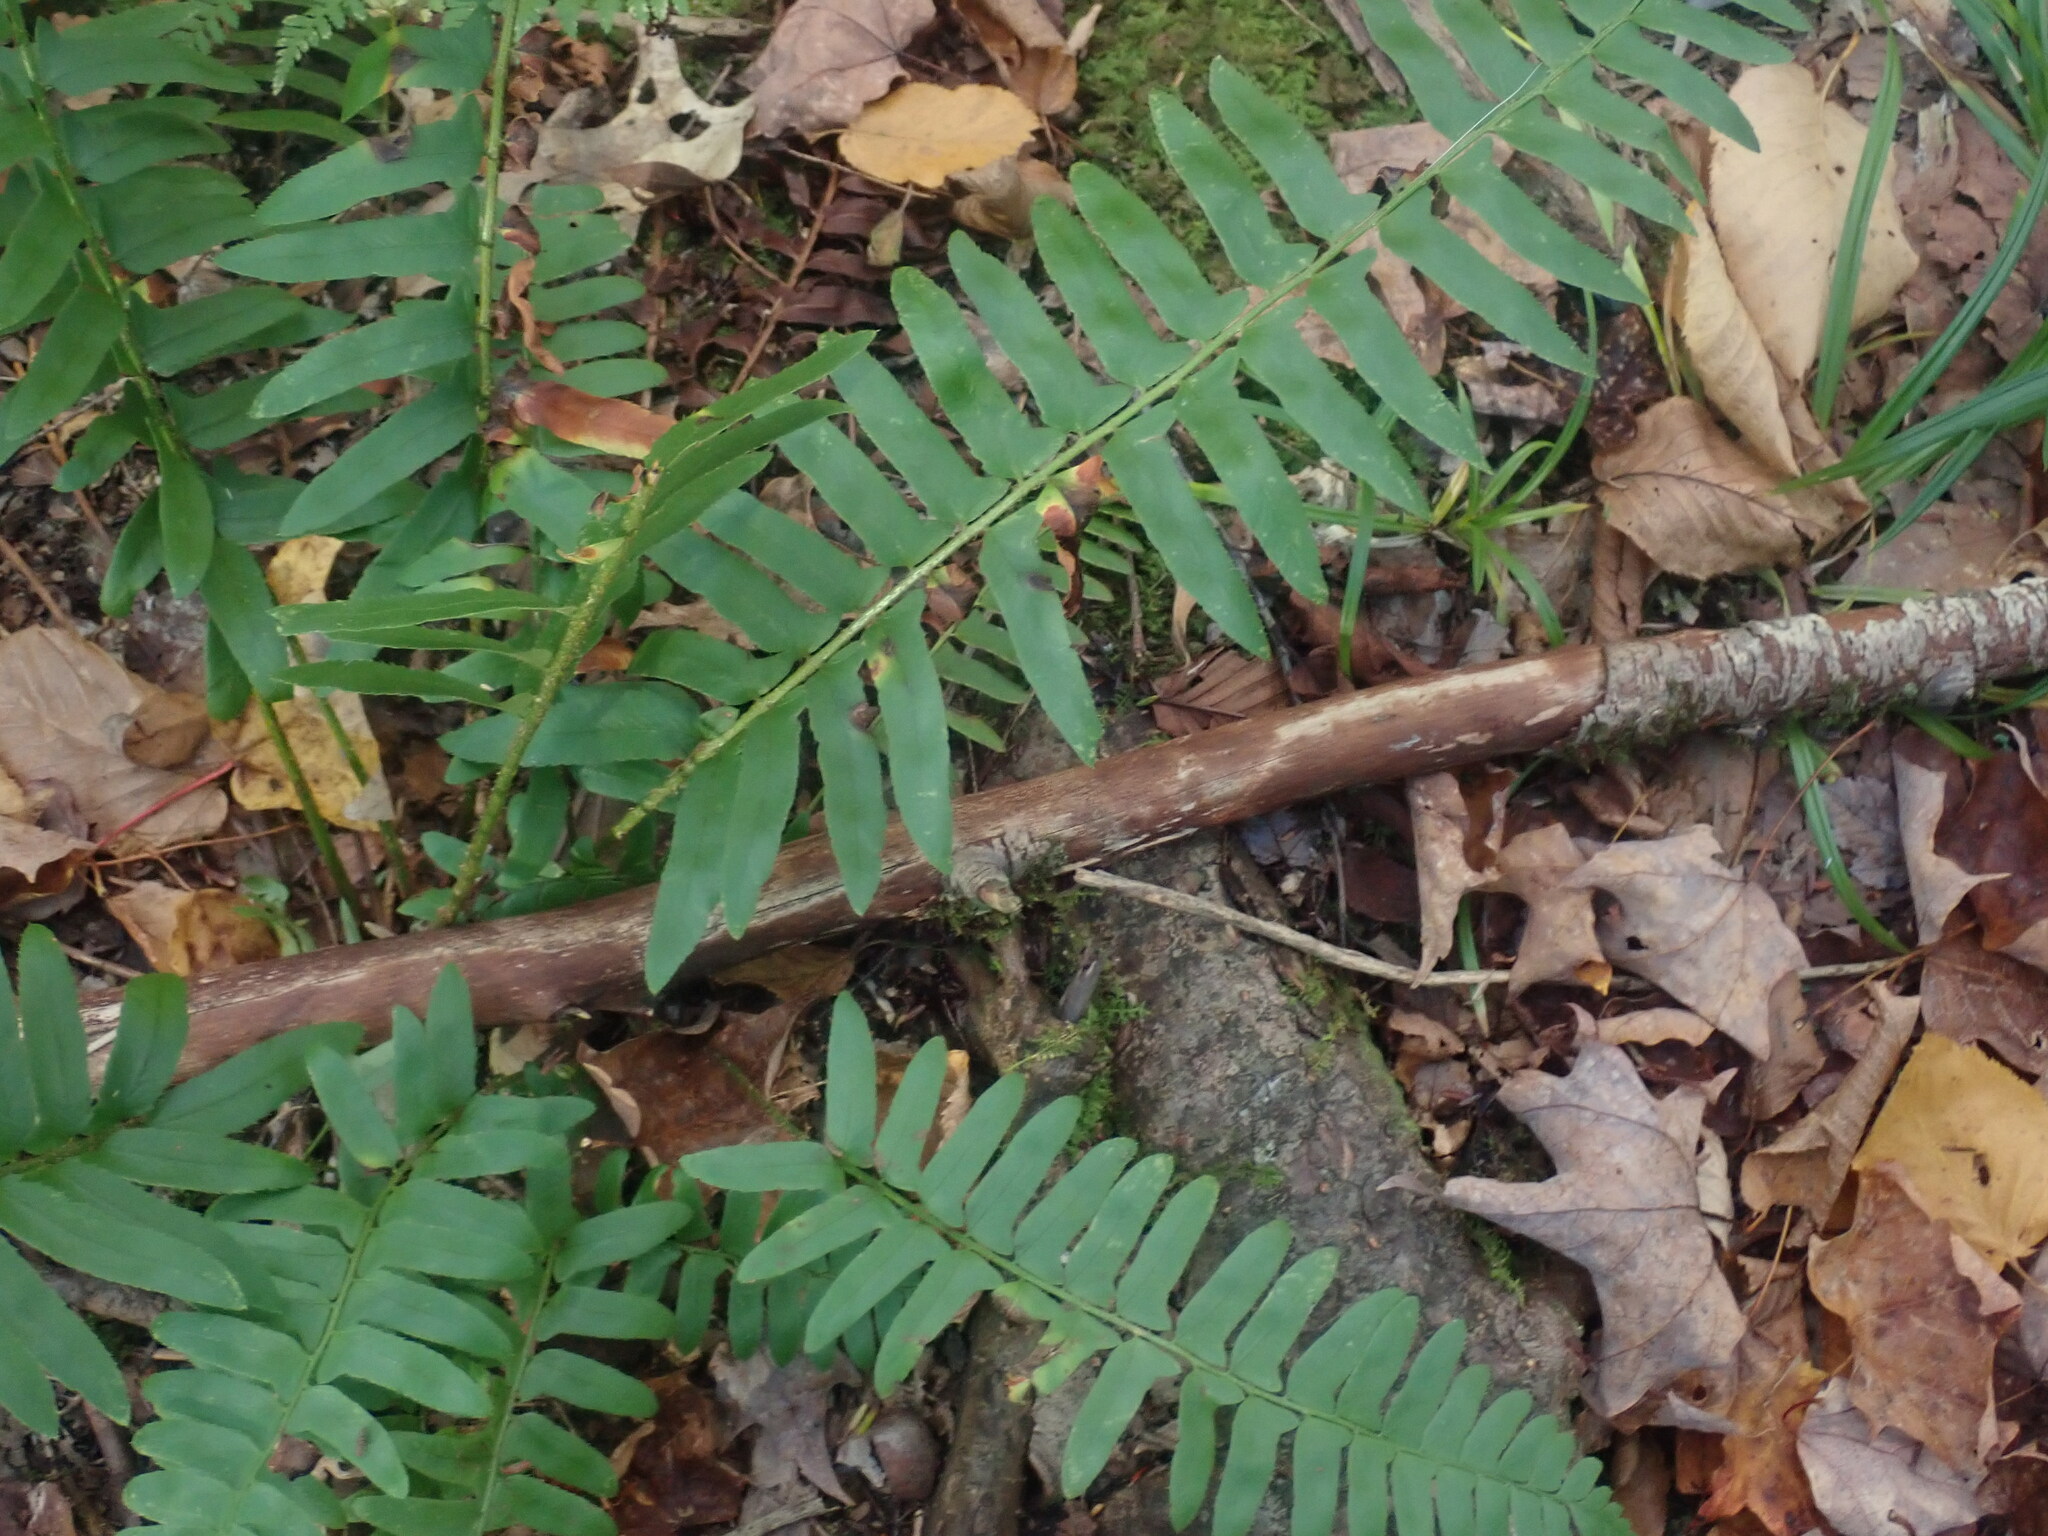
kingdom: Plantae
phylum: Tracheophyta
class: Polypodiopsida
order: Polypodiales
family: Dryopteridaceae
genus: Polystichum
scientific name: Polystichum acrostichoides
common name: Christmas fern
